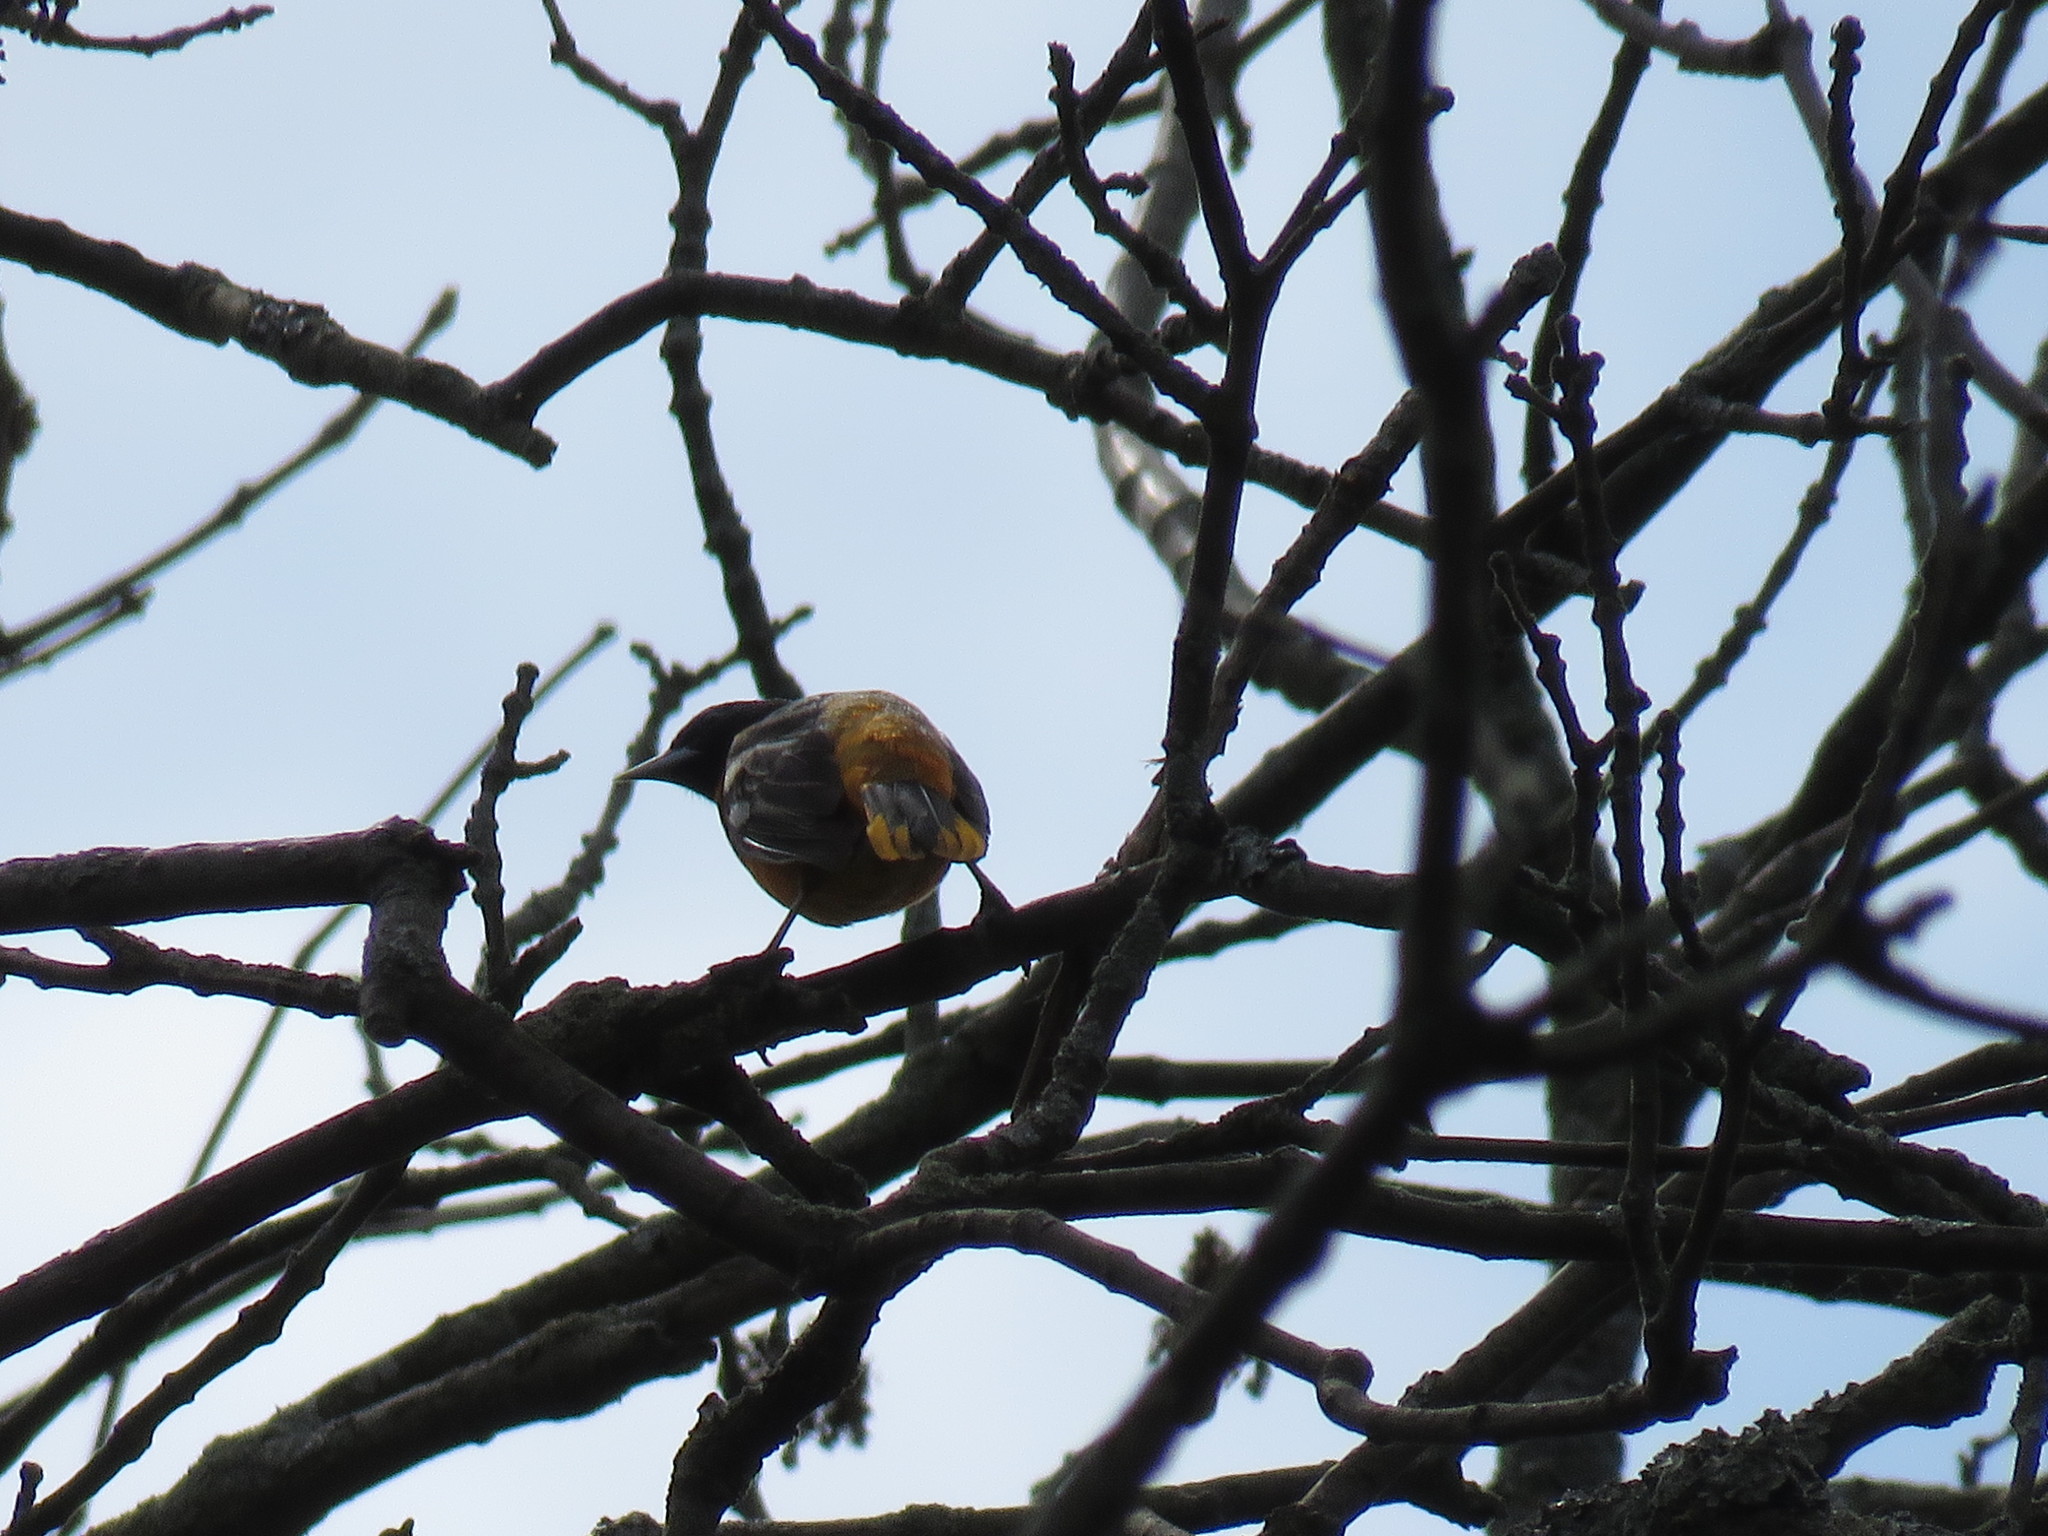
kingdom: Animalia
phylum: Chordata
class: Aves
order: Passeriformes
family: Icteridae
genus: Icterus
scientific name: Icterus galbula
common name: Baltimore oriole
